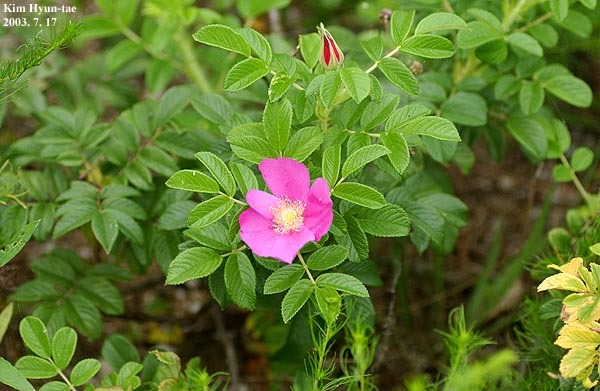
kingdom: Plantae
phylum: Tracheophyta
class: Magnoliopsida
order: Rosales
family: Rosaceae
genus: Rosa
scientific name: Rosa rugosa
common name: Japanese rose
